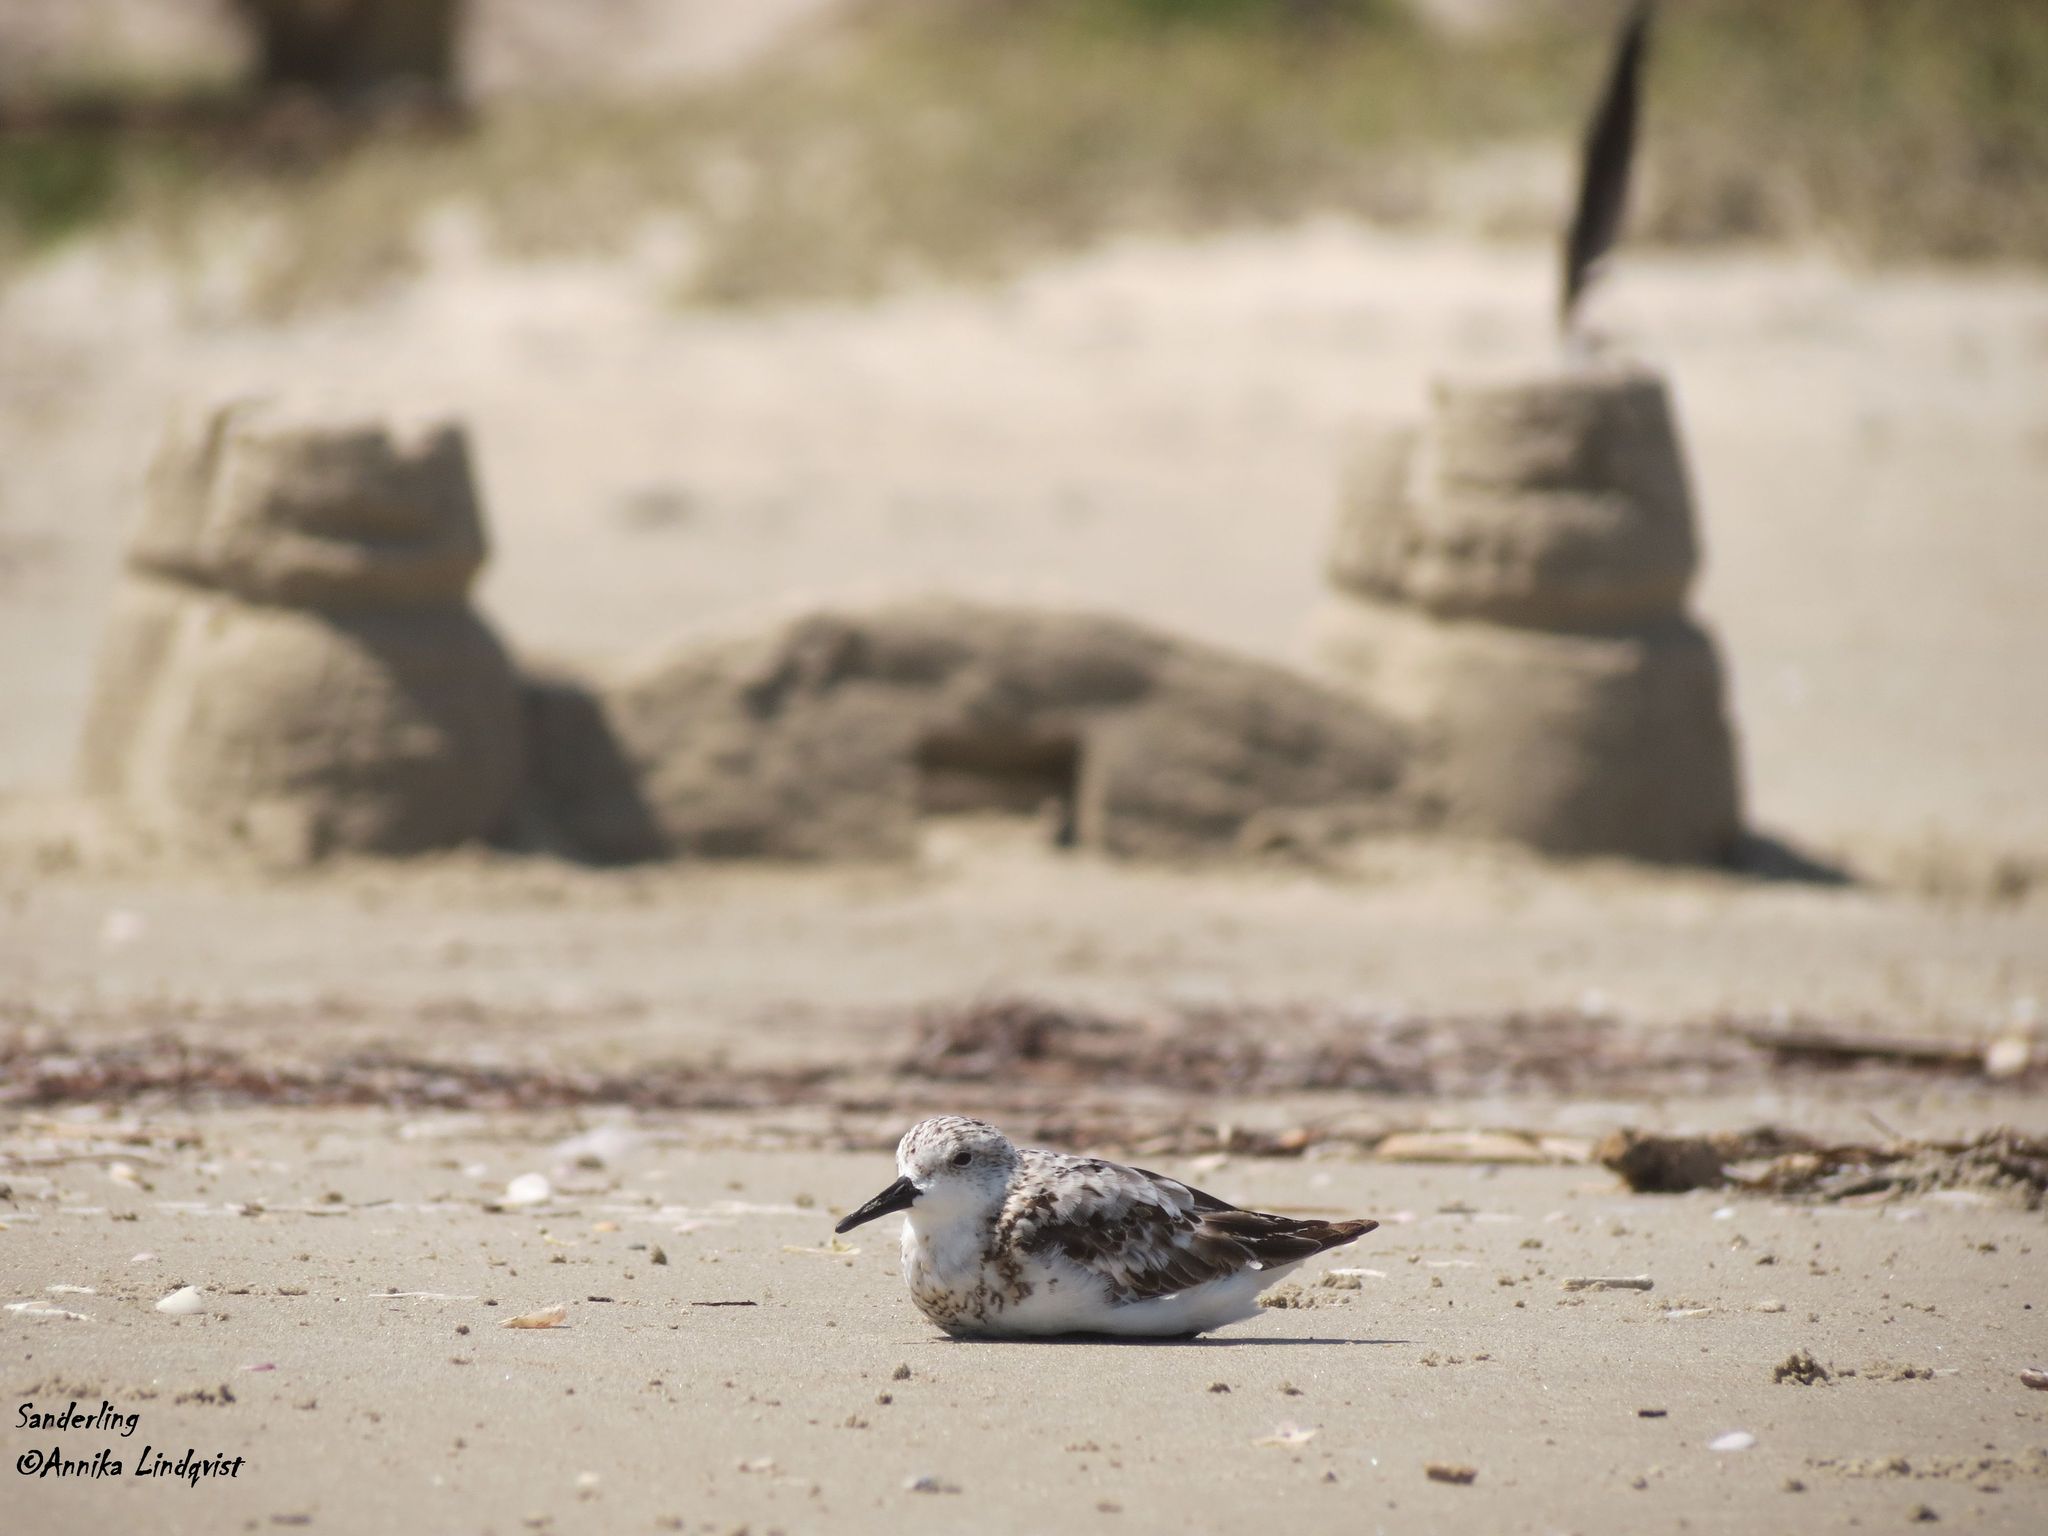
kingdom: Animalia
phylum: Chordata
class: Aves
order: Charadriiformes
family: Scolopacidae
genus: Calidris
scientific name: Calidris alba
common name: Sanderling
